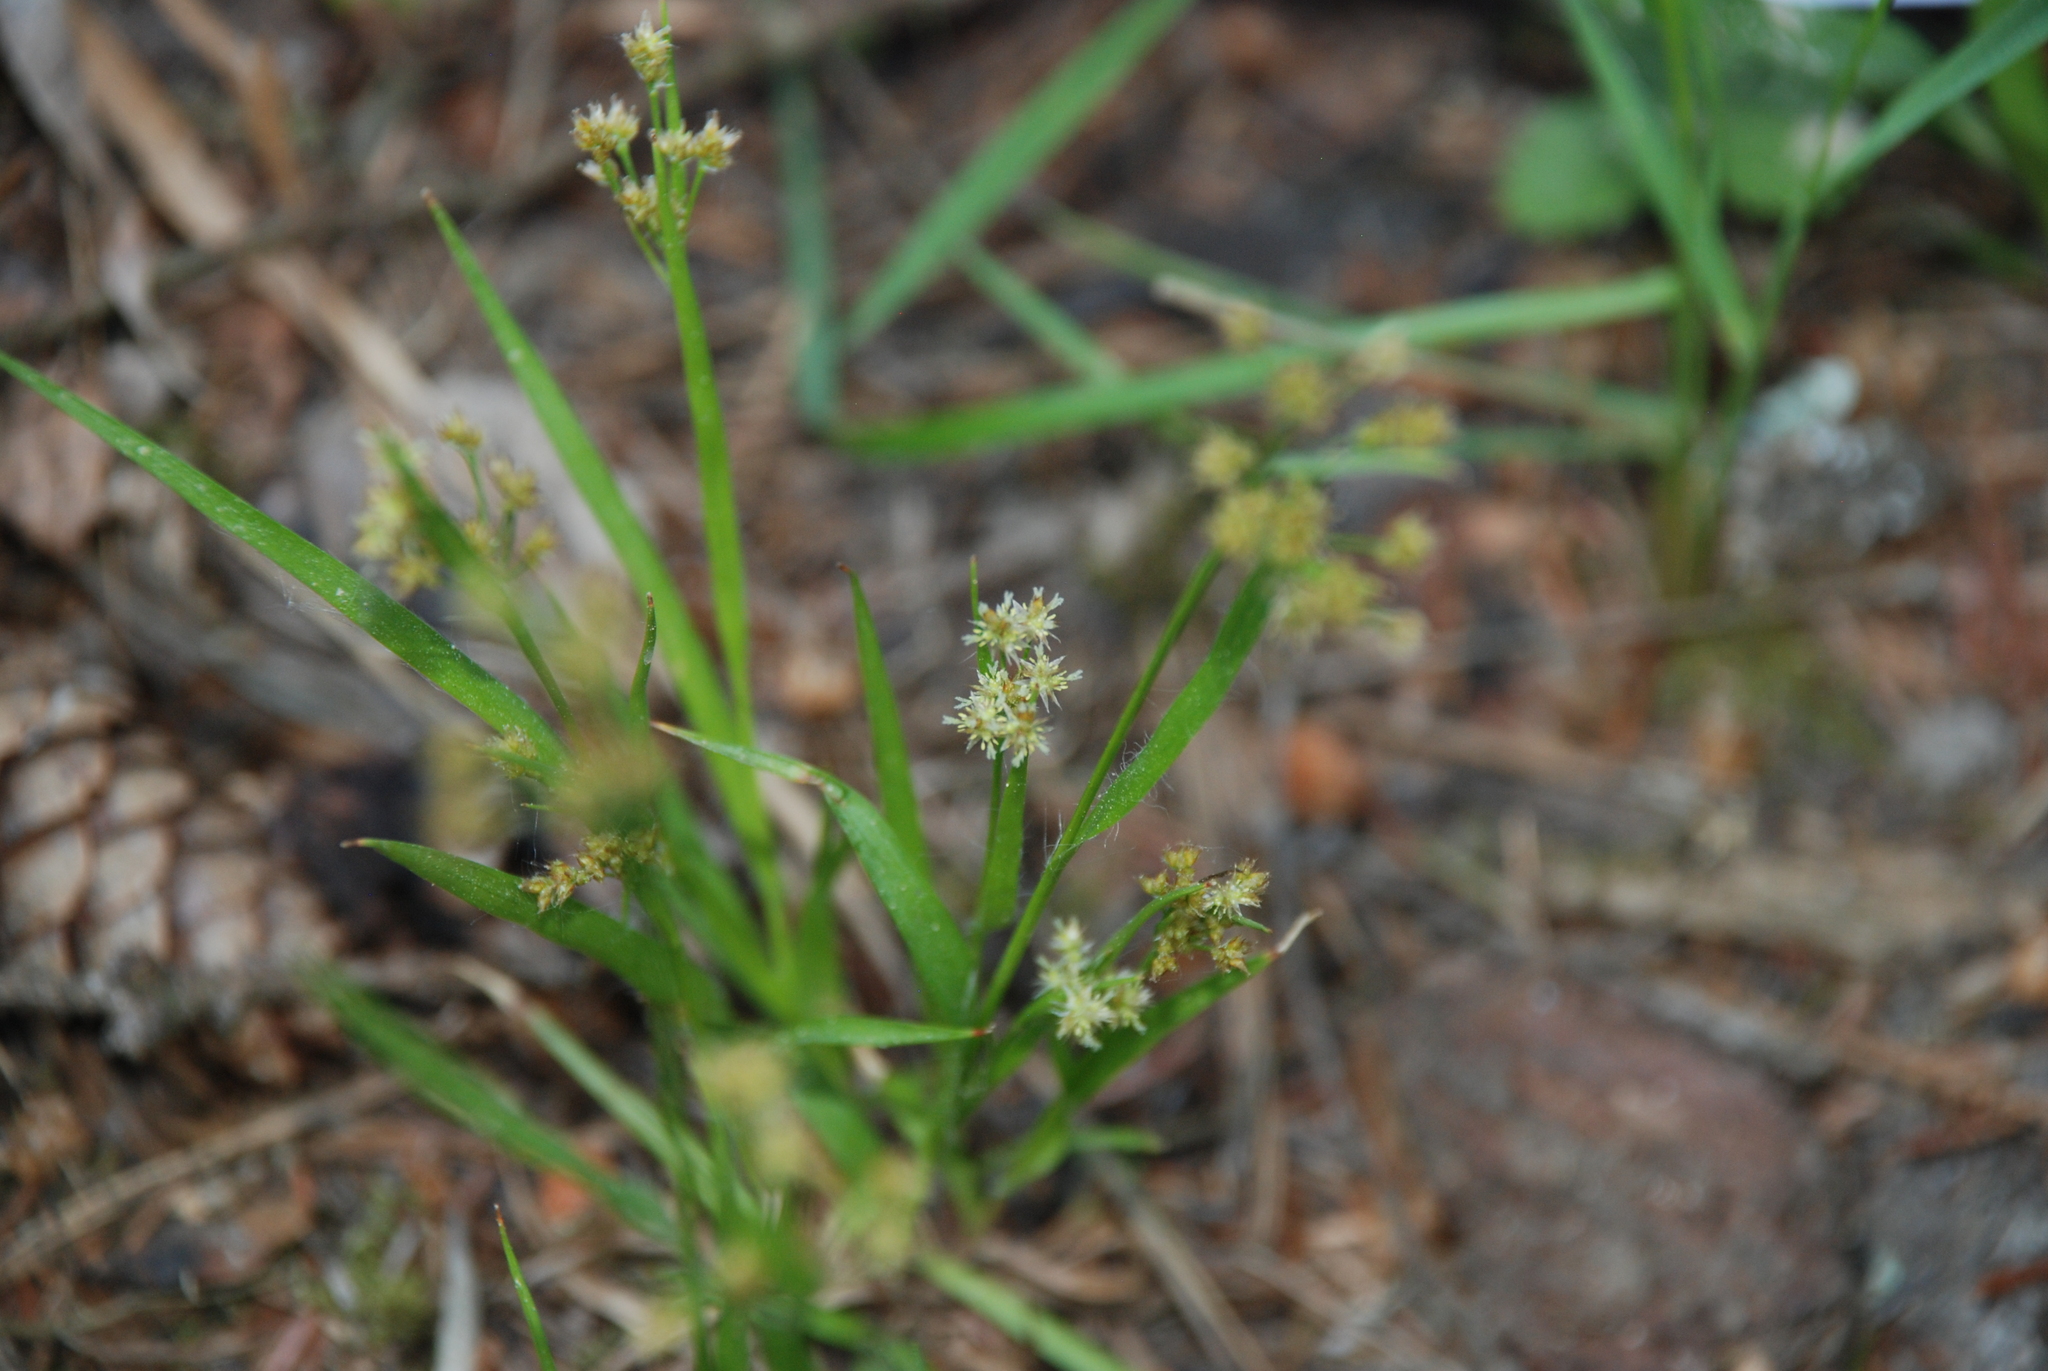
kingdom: Plantae
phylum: Tracheophyta
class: Liliopsida
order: Poales
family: Juncaceae
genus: Luzula
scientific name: Luzula pallescens
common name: Fen wood-rush
